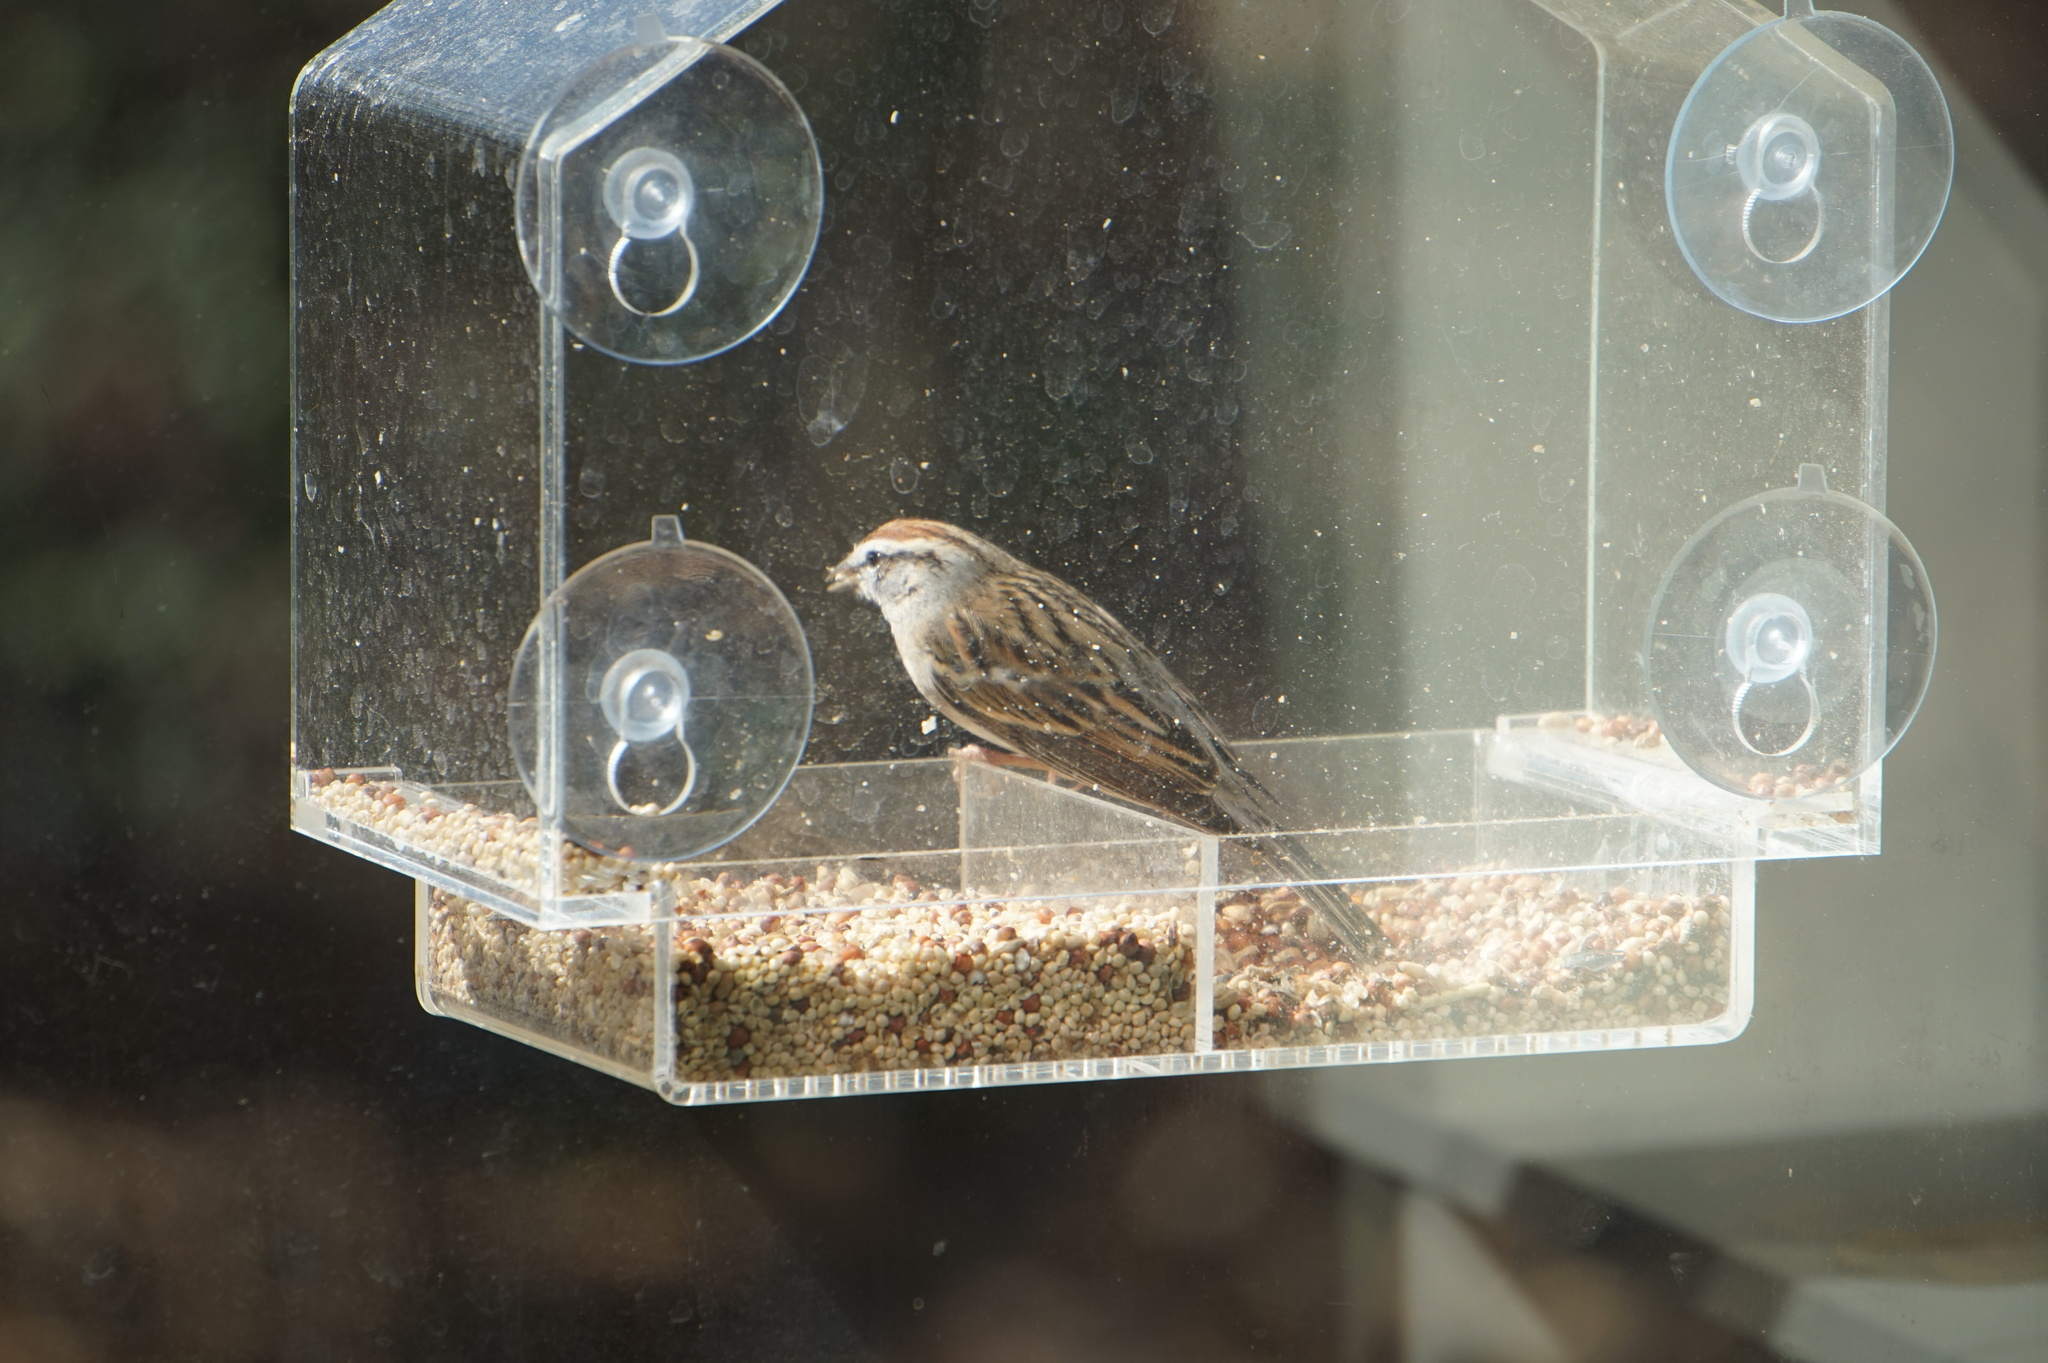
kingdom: Animalia
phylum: Chordata
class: Aves
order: Passeriformes
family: Passerellidae
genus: Spizella
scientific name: Spizella passerina
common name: Chipping sparrow
